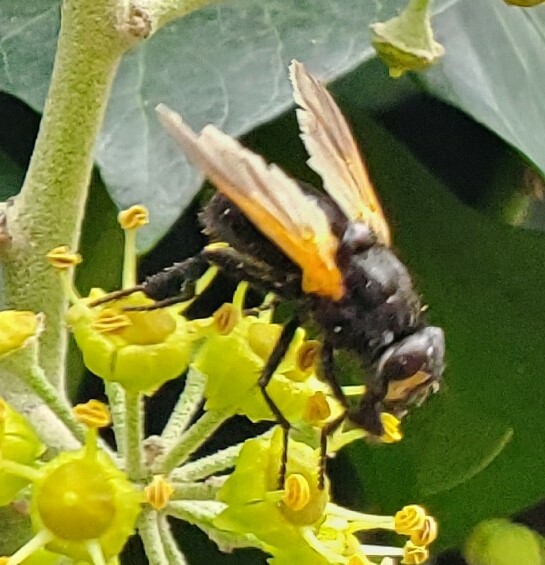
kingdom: Animalia
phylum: Arthropoda
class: Insecta
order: Diptera
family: Muscidae
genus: Mesembrina
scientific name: Mesembrina meridiana
